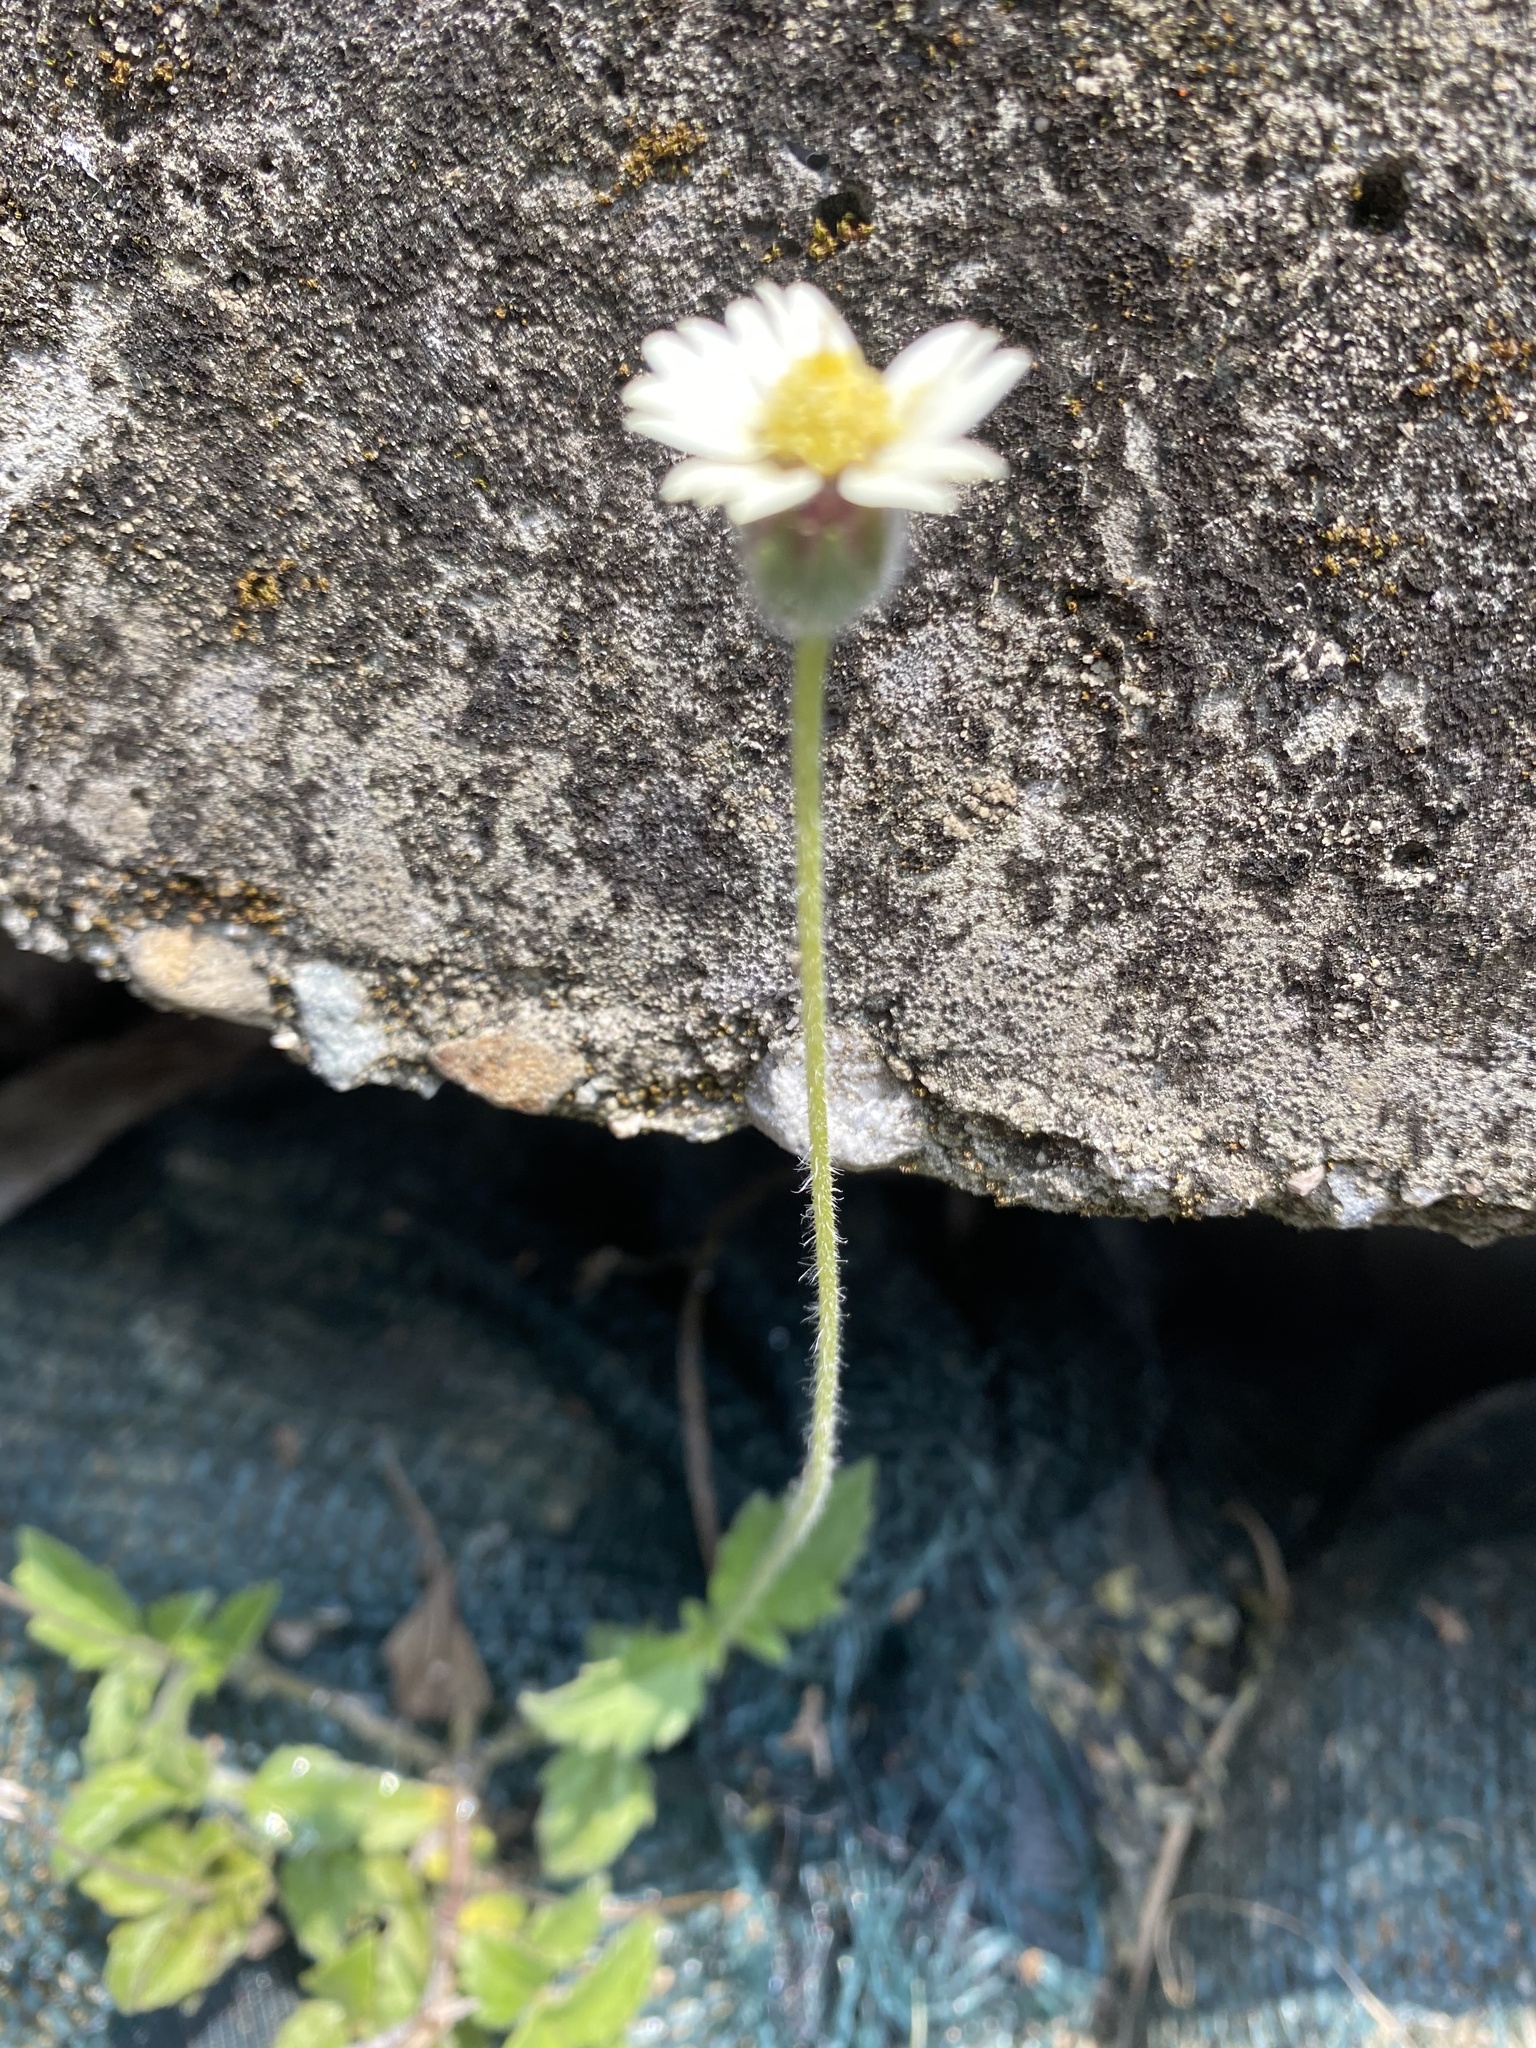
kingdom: Plantae
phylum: Tracheophyta
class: Magnoliopsida
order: Asterales
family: Asteraceae
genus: Tridax
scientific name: Tridax procumbens
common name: Coatbuttons
